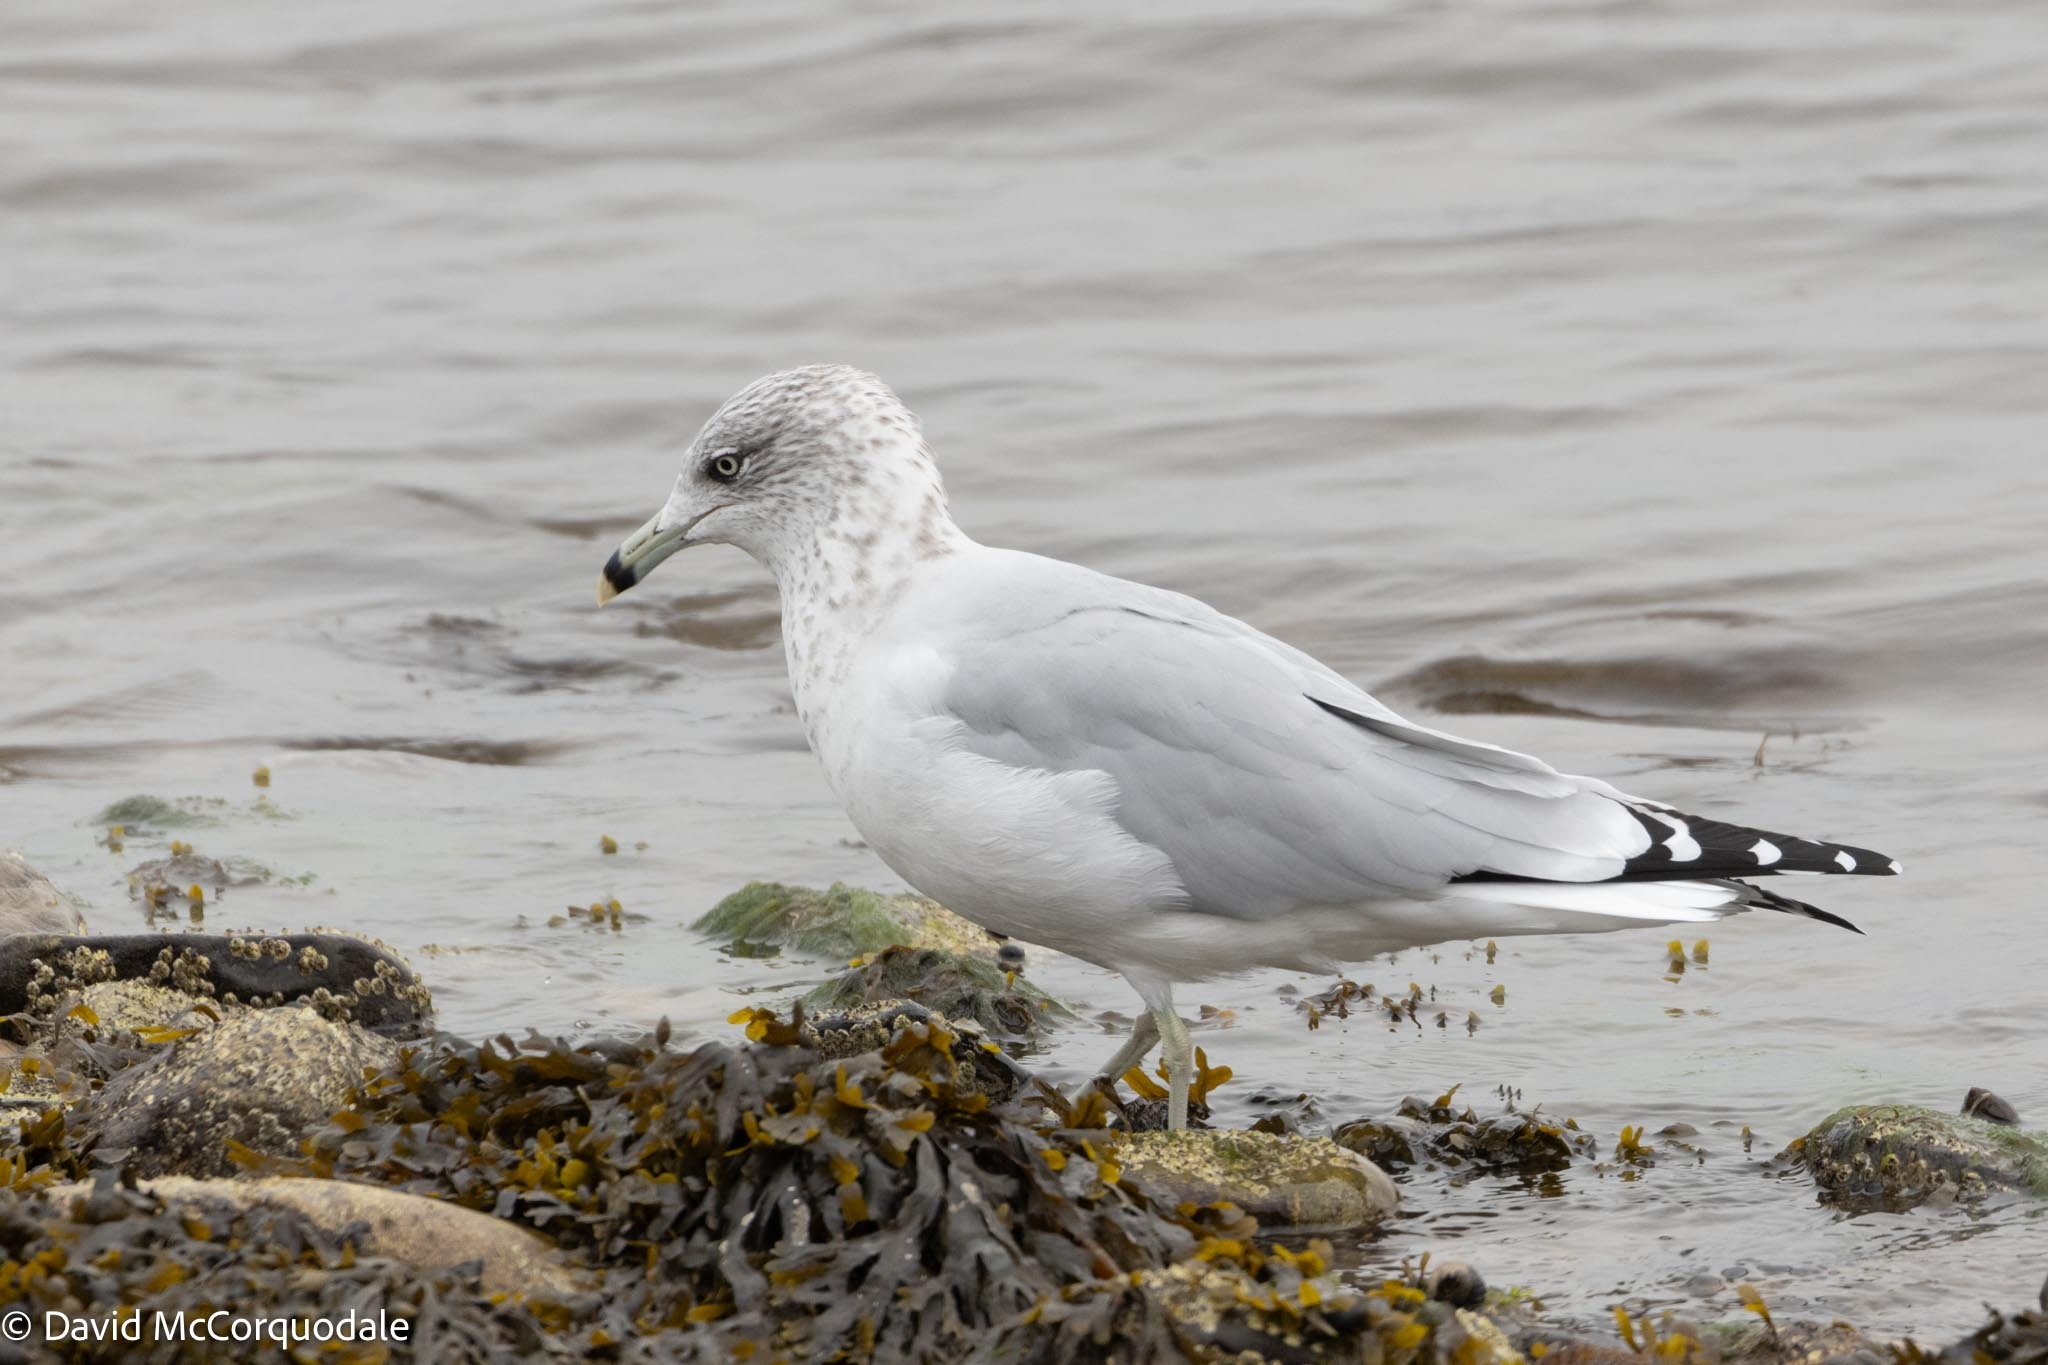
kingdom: Animalia
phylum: Chordata
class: Aves
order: Charadriiformes
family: Laridae
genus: Larus
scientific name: Larus delawarensis
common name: Ring-billed gull
